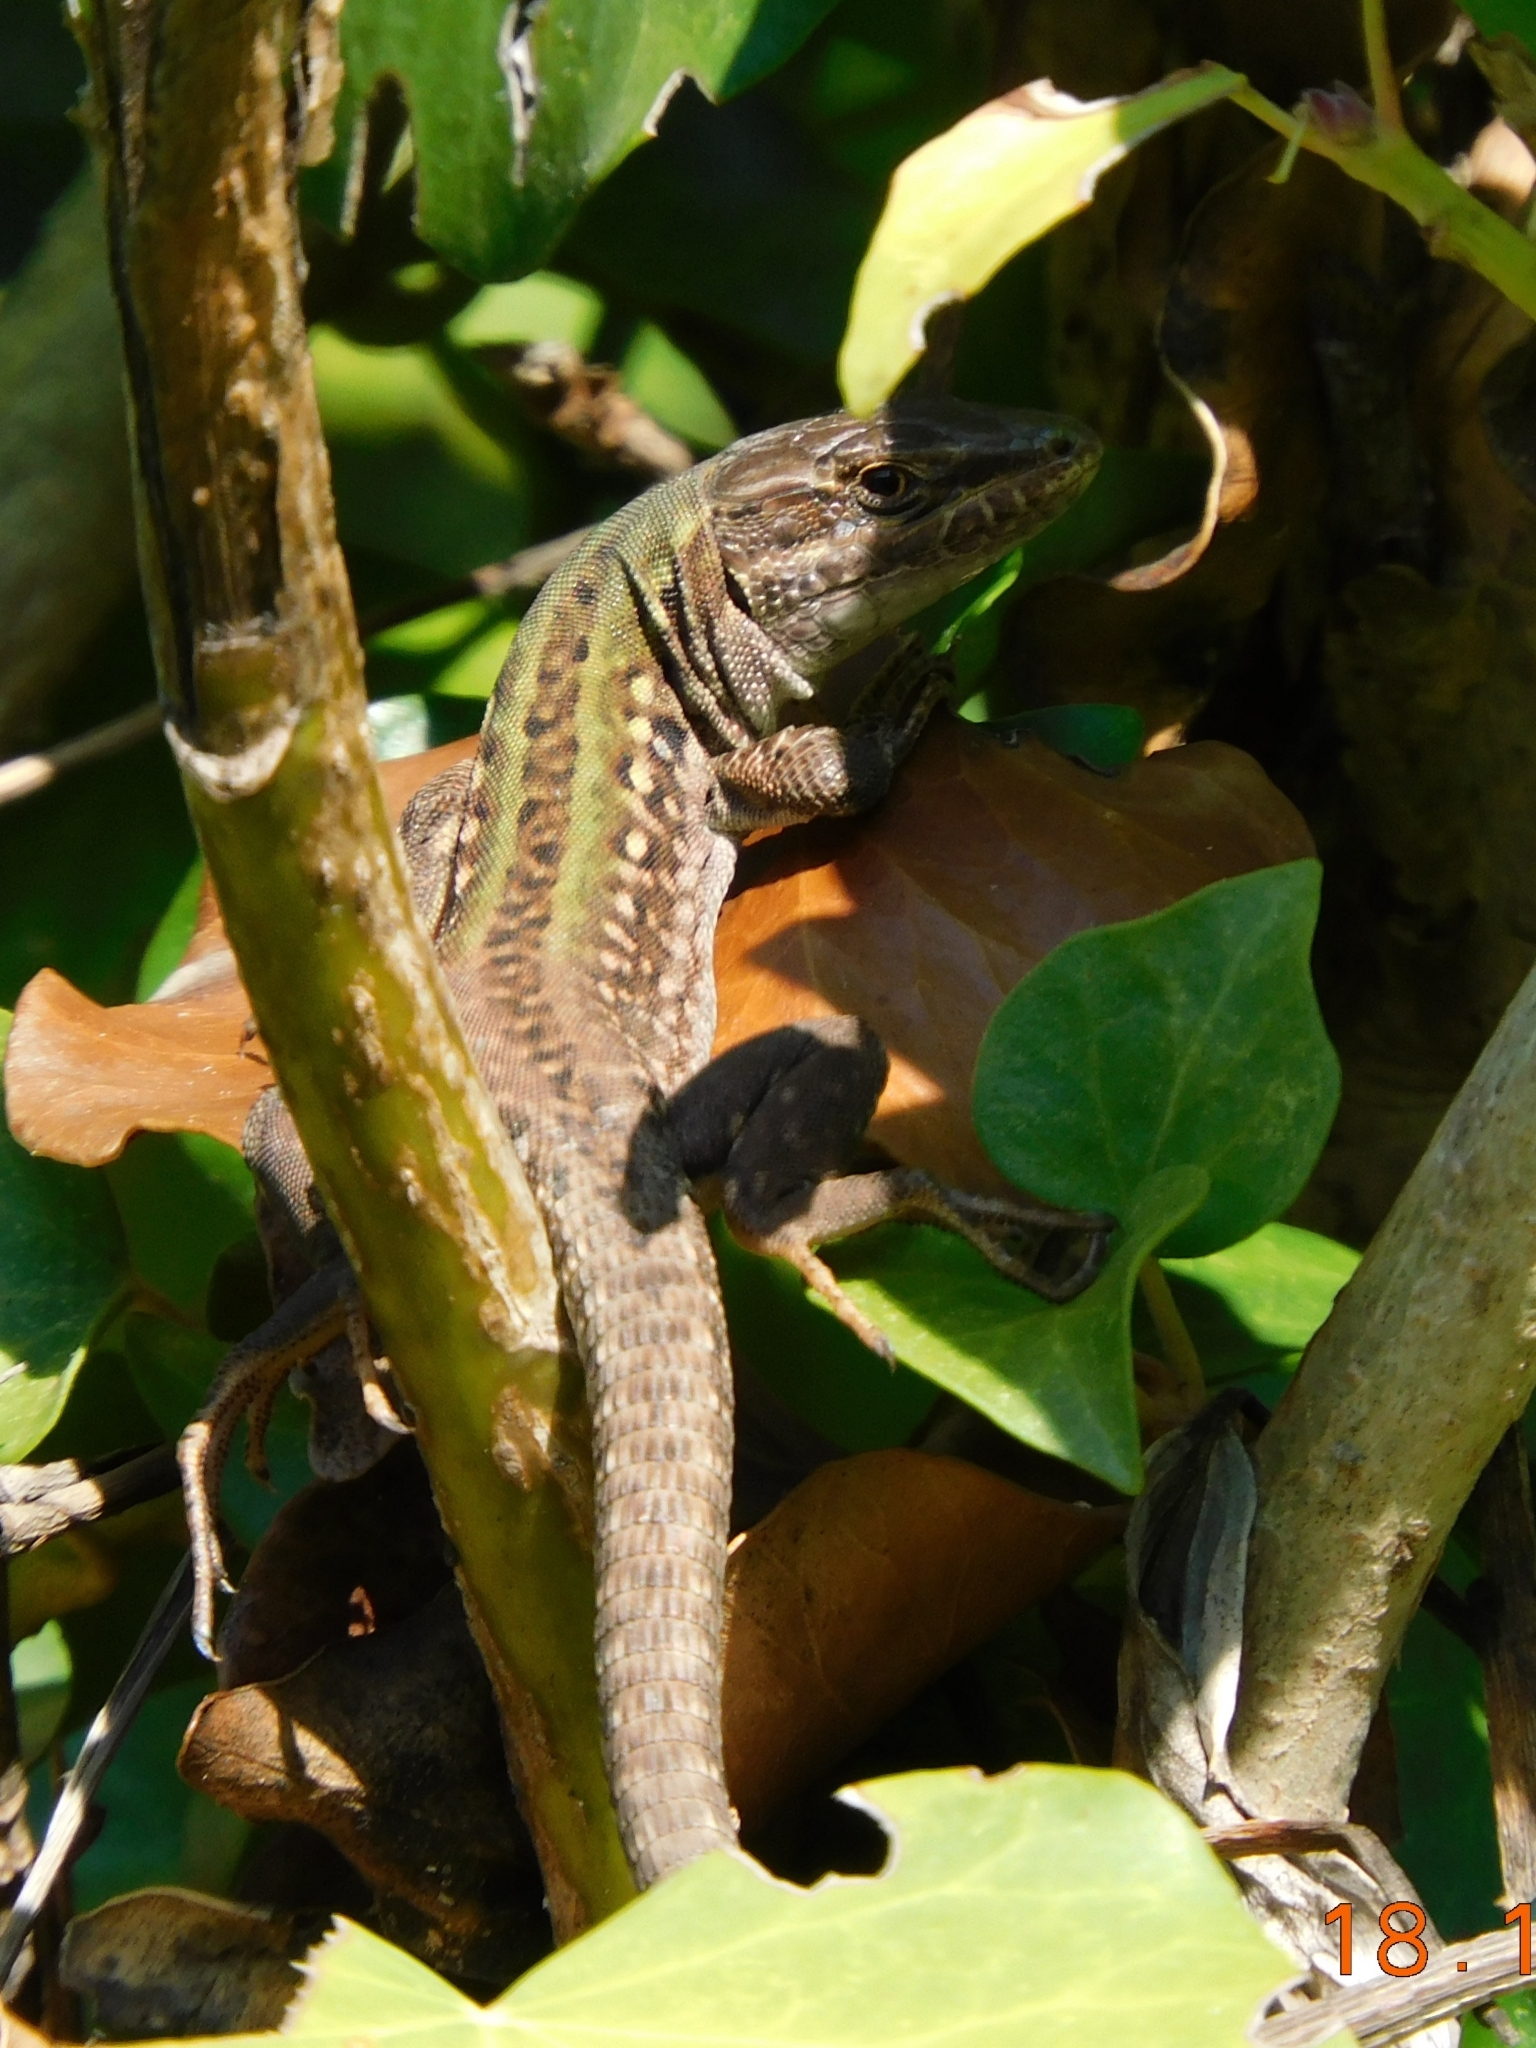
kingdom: Animalia
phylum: Chordata
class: Squamata
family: Lacertidae
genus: Podarcis
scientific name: Podarcis siculus
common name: Italian wall lizard
